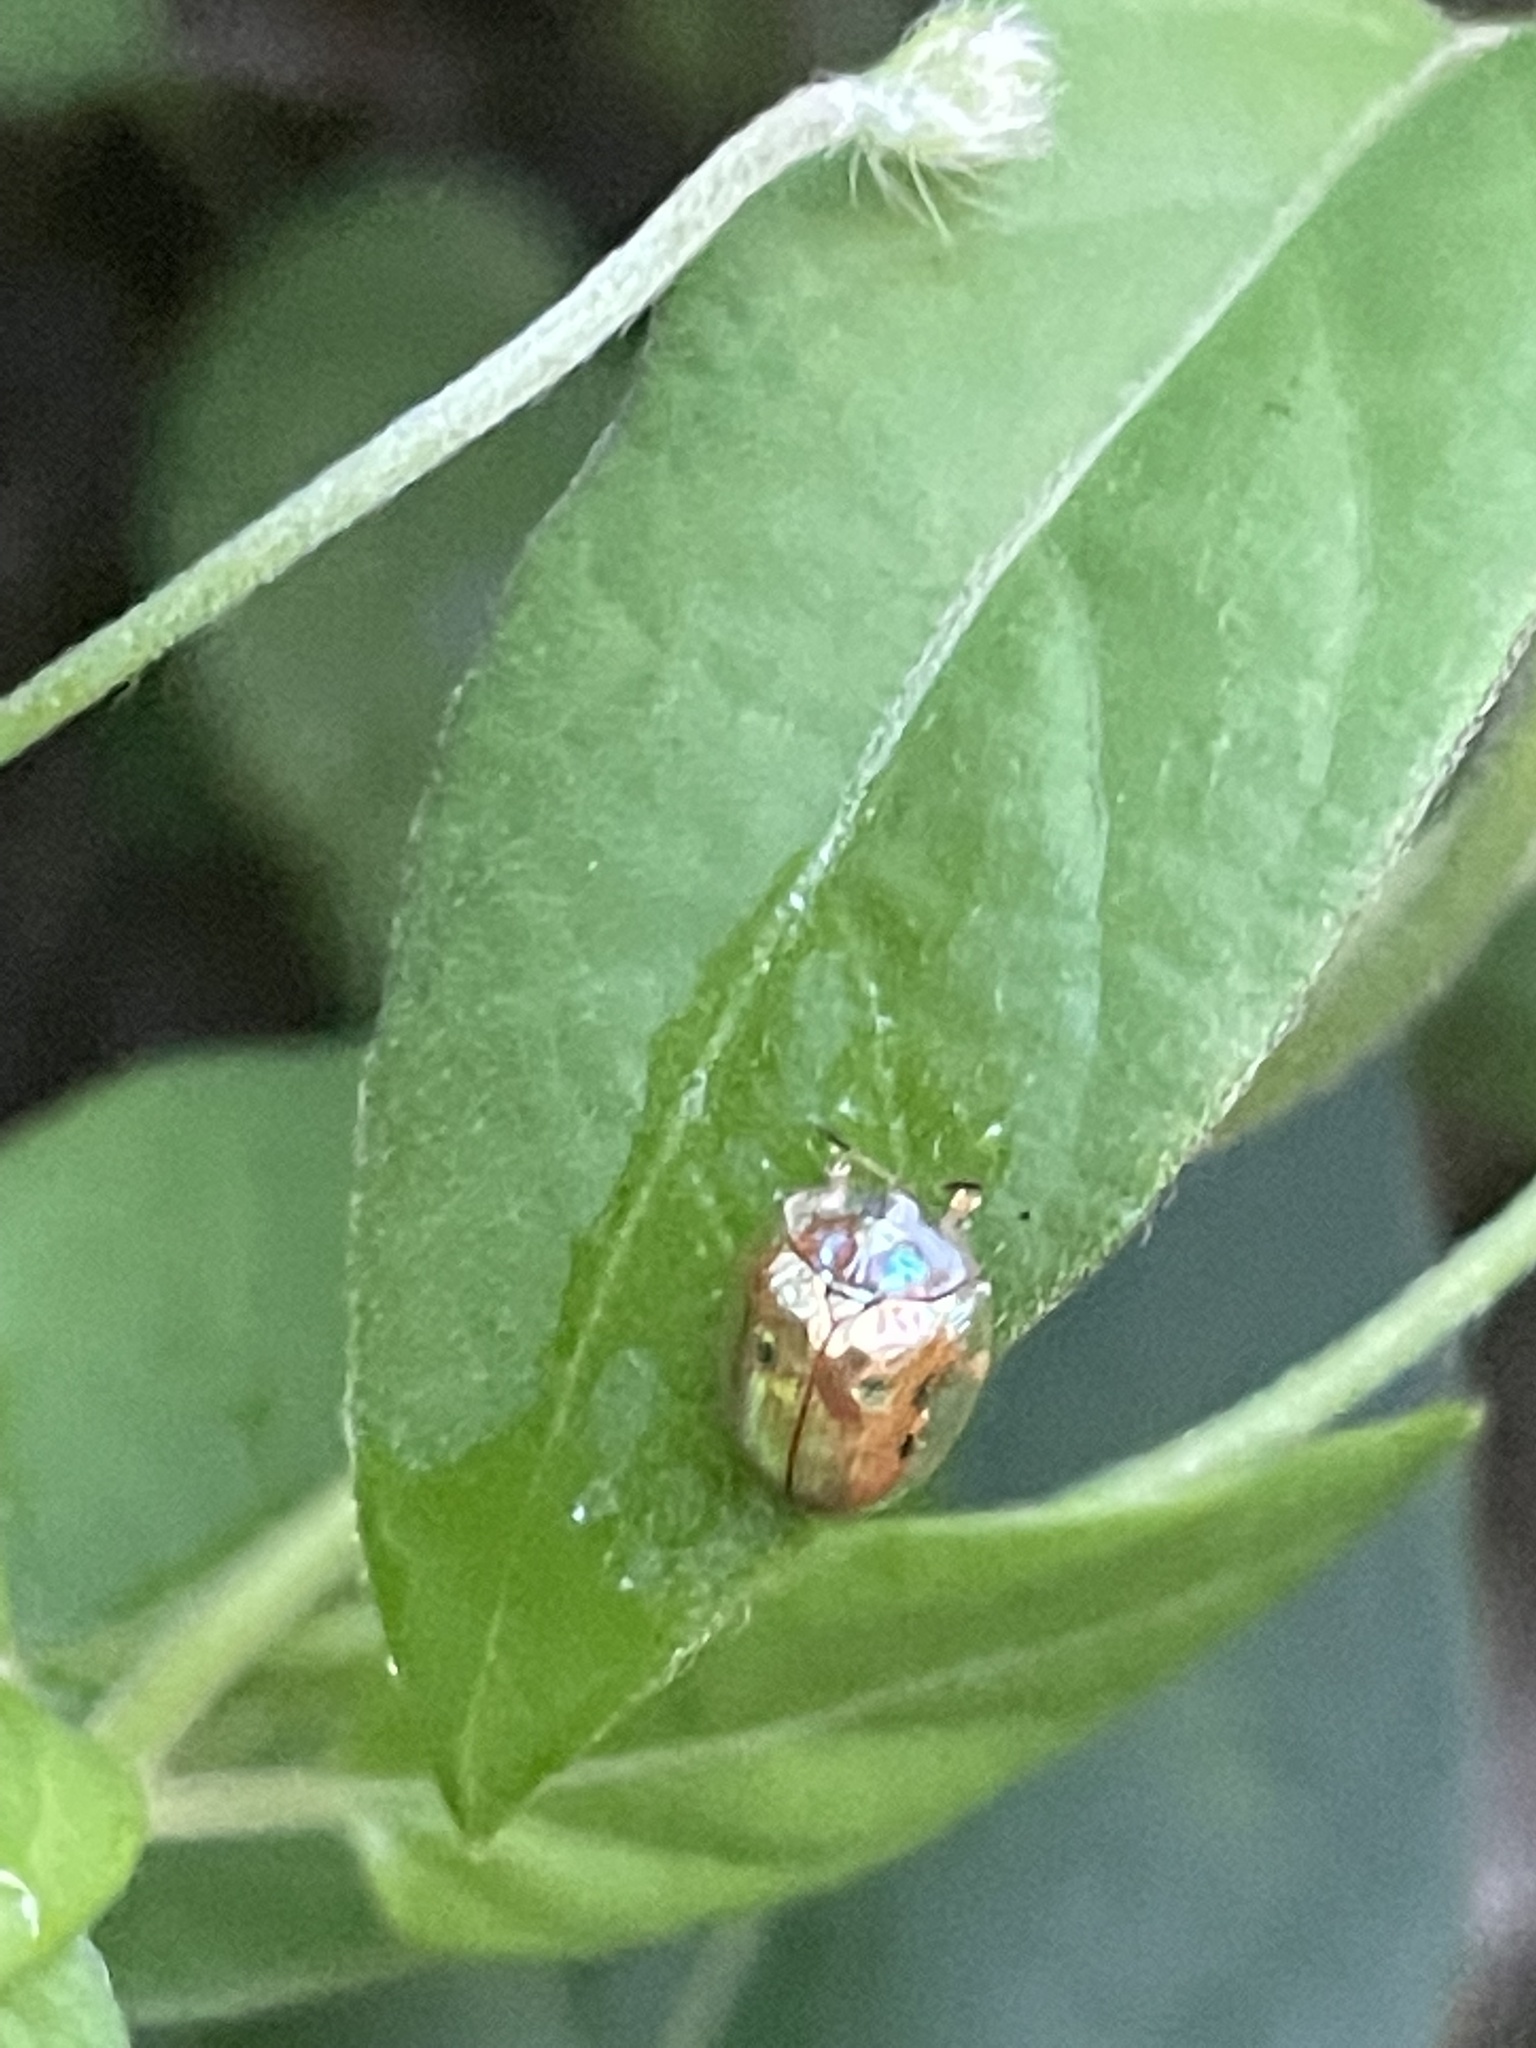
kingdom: Animalia
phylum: Arthropoda
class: Insecta
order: Coleoptera
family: Chrysomelidae
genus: Charidotella
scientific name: Charidotella sexpunctata
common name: Golden tortoise beetle
